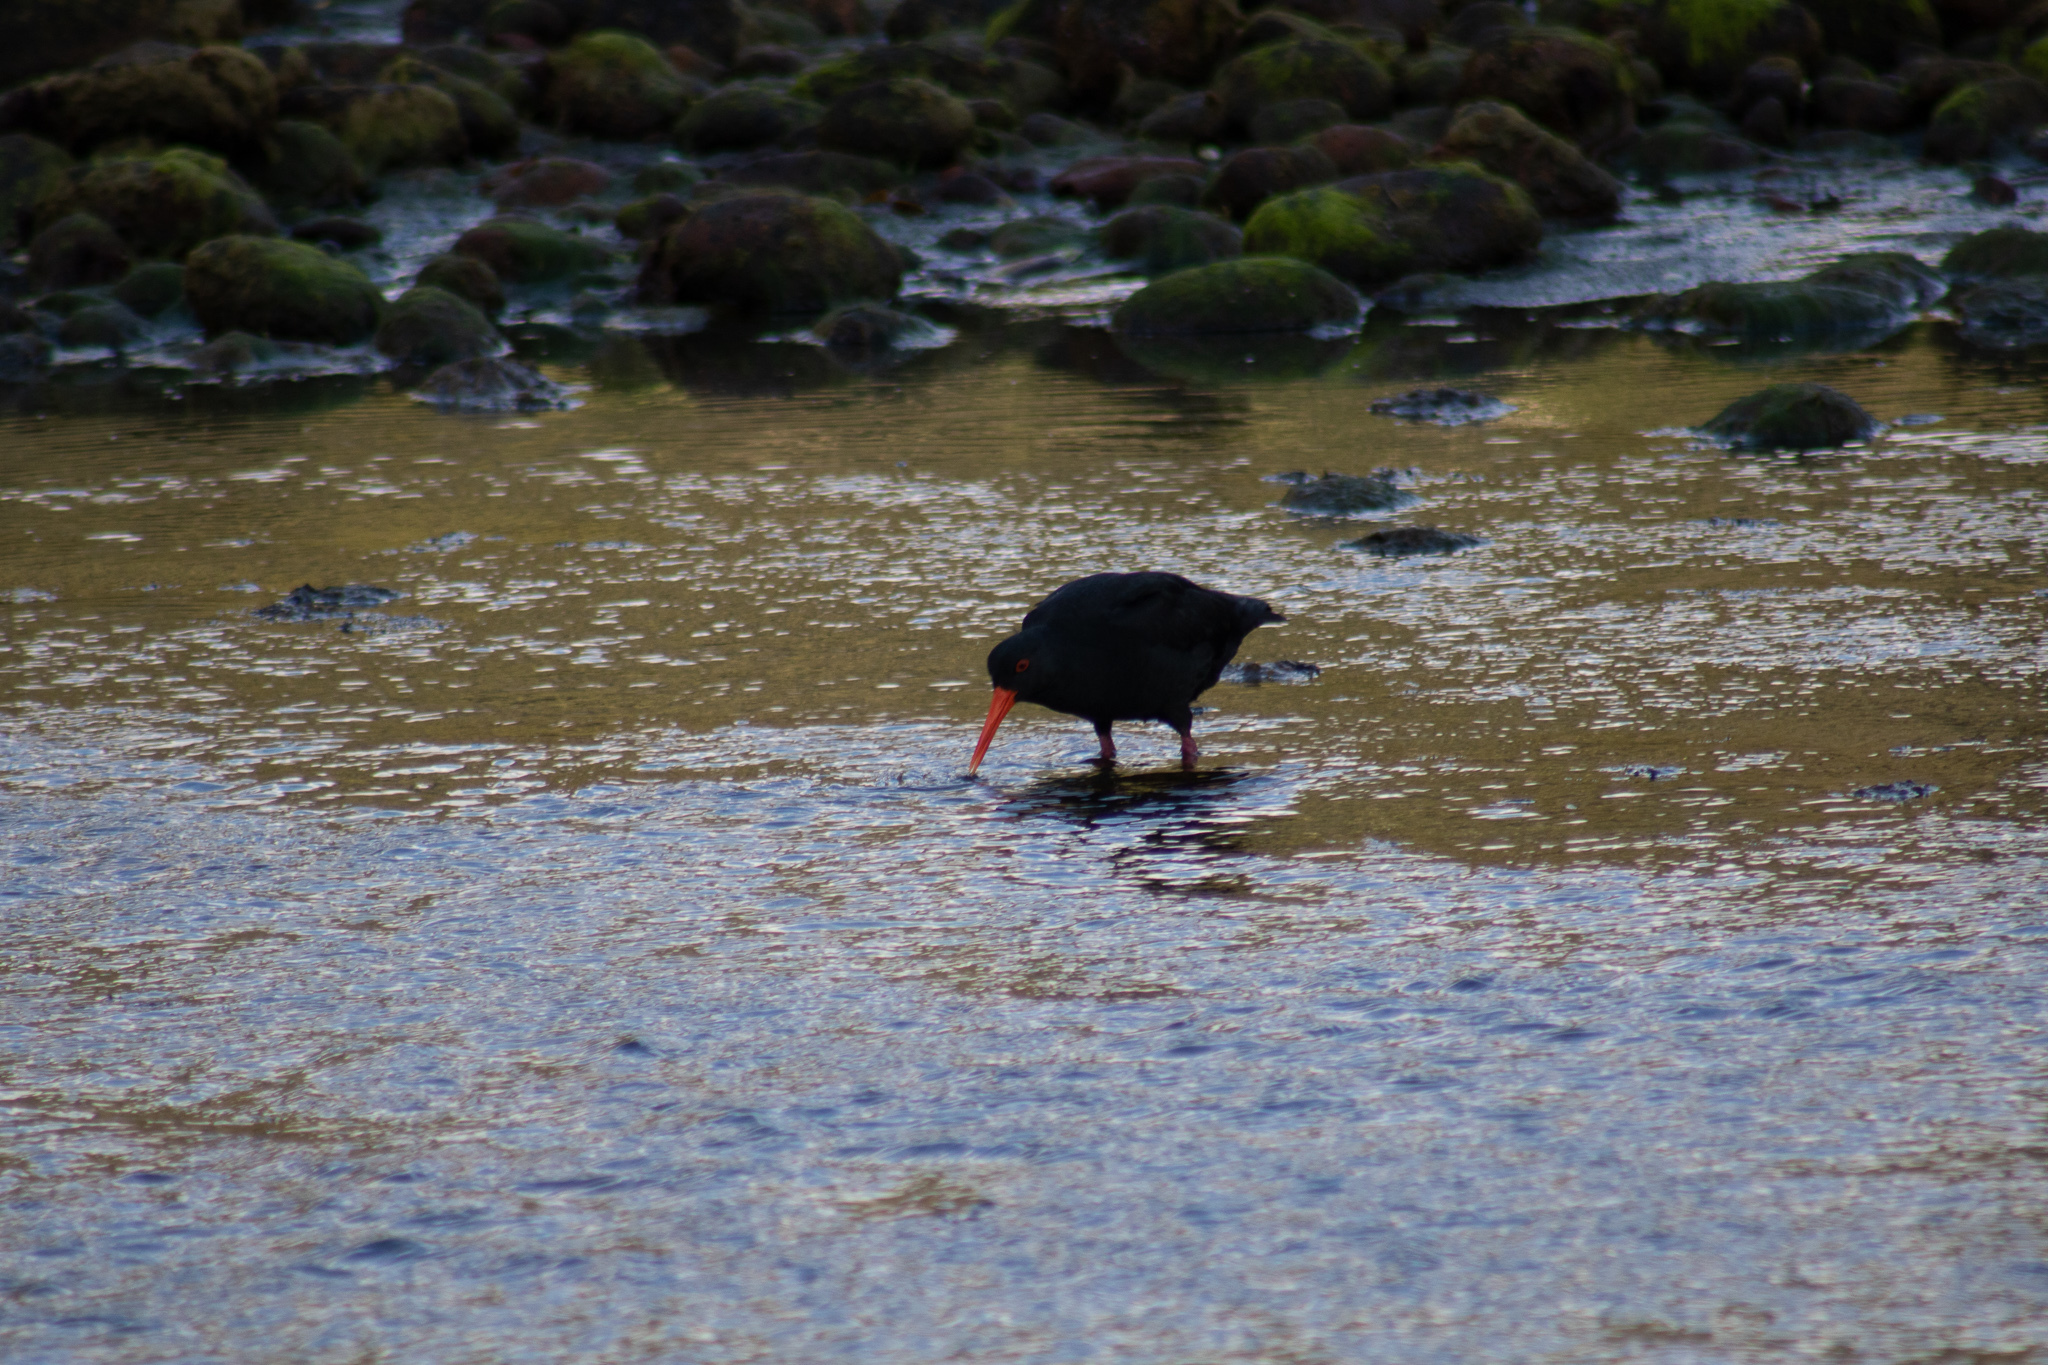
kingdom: Animalia
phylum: Chordata
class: Aves
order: Charadriiformes
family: Haematopodidae
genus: Haematopus
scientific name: Haematopus unicolor
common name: Variable oystercatcher
